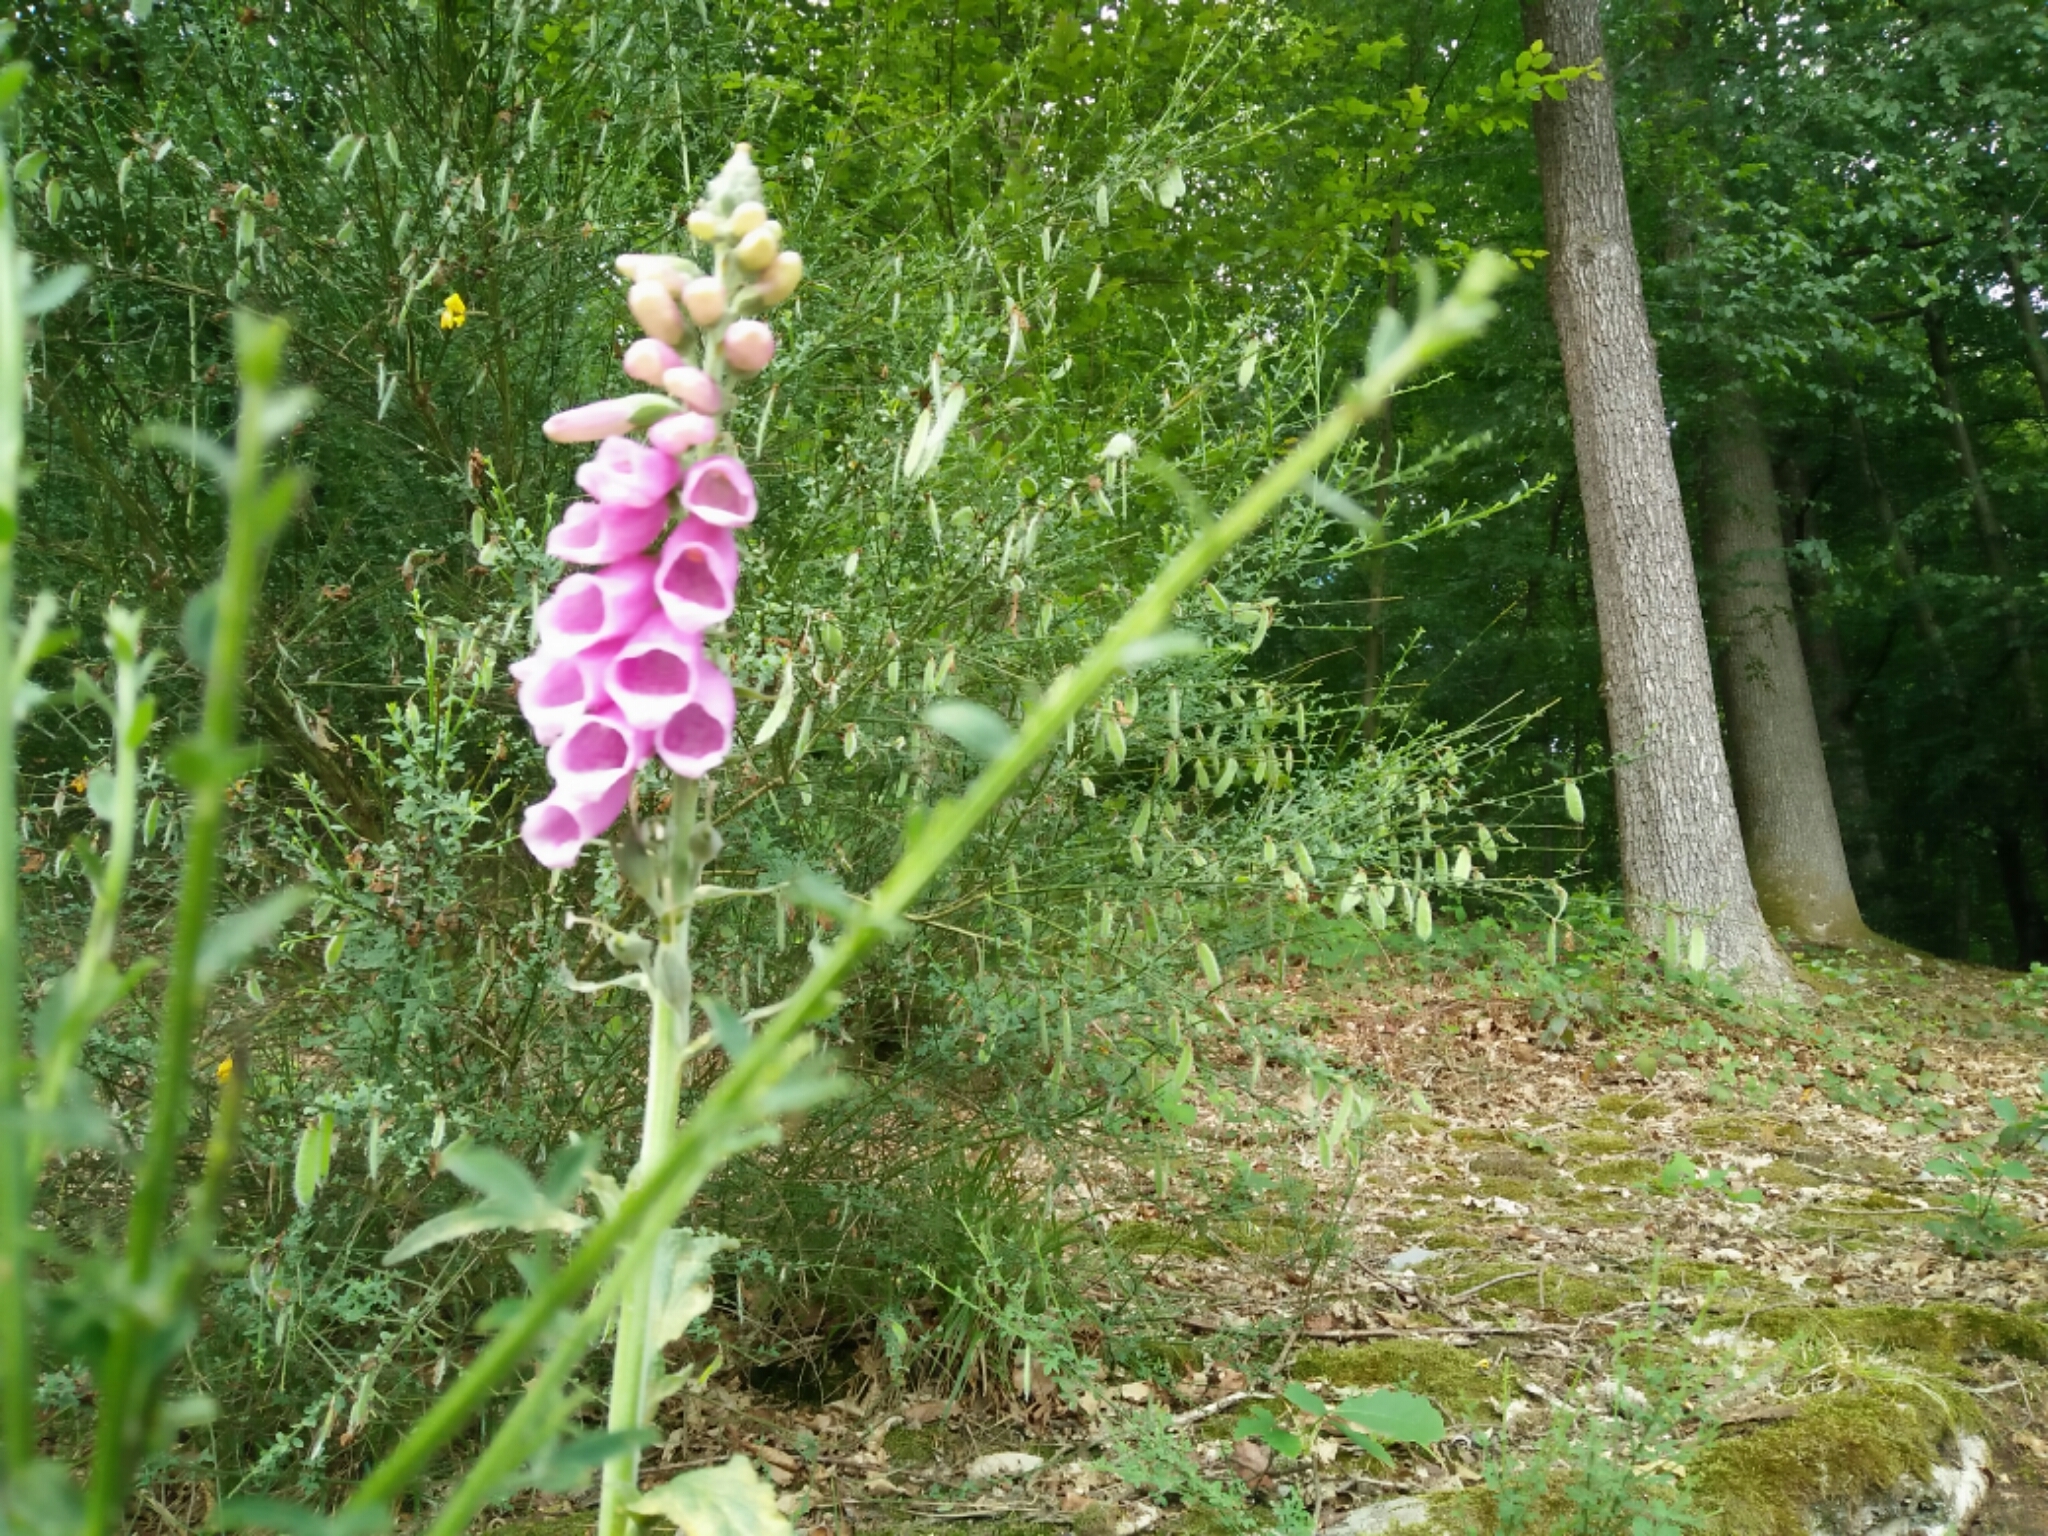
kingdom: Plantae
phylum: Tracheophyta
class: Magnoliopsida
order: Lamiales
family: Plantaginaceae
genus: Digitalis
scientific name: Digitalis purpurea
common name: Foxglove
